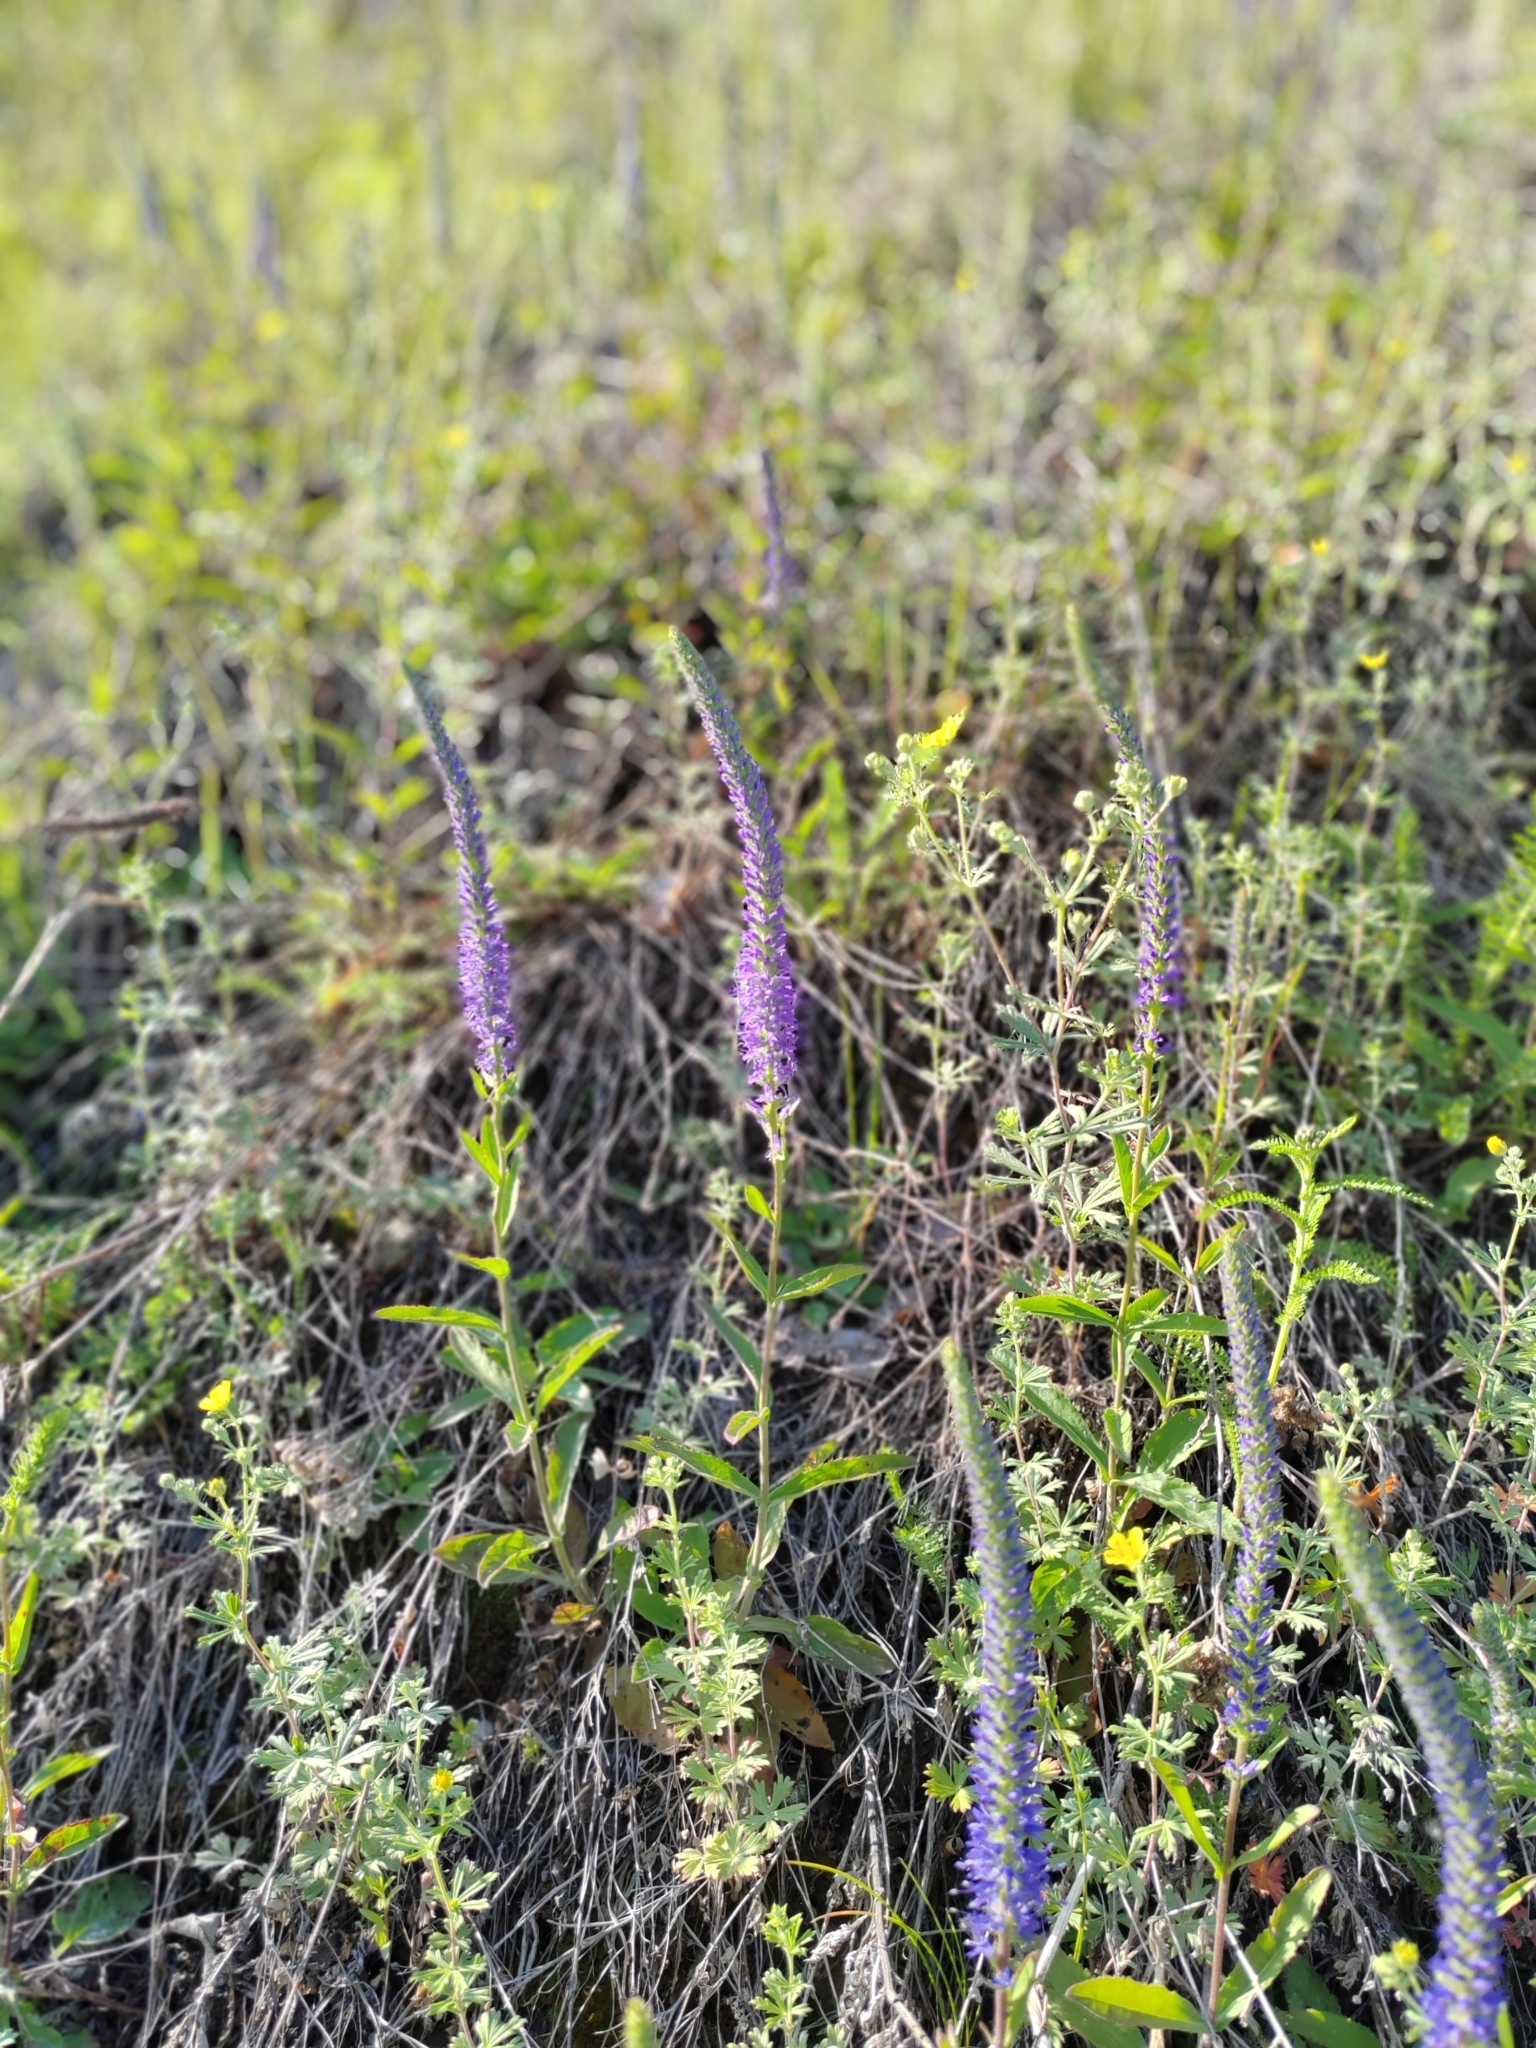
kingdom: Plantae
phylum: Tracheophyta
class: Magnoliopsida
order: Lamiales
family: Plantaginaceae
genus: Veronica
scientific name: Veronica spicata
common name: Spiked speedwell
